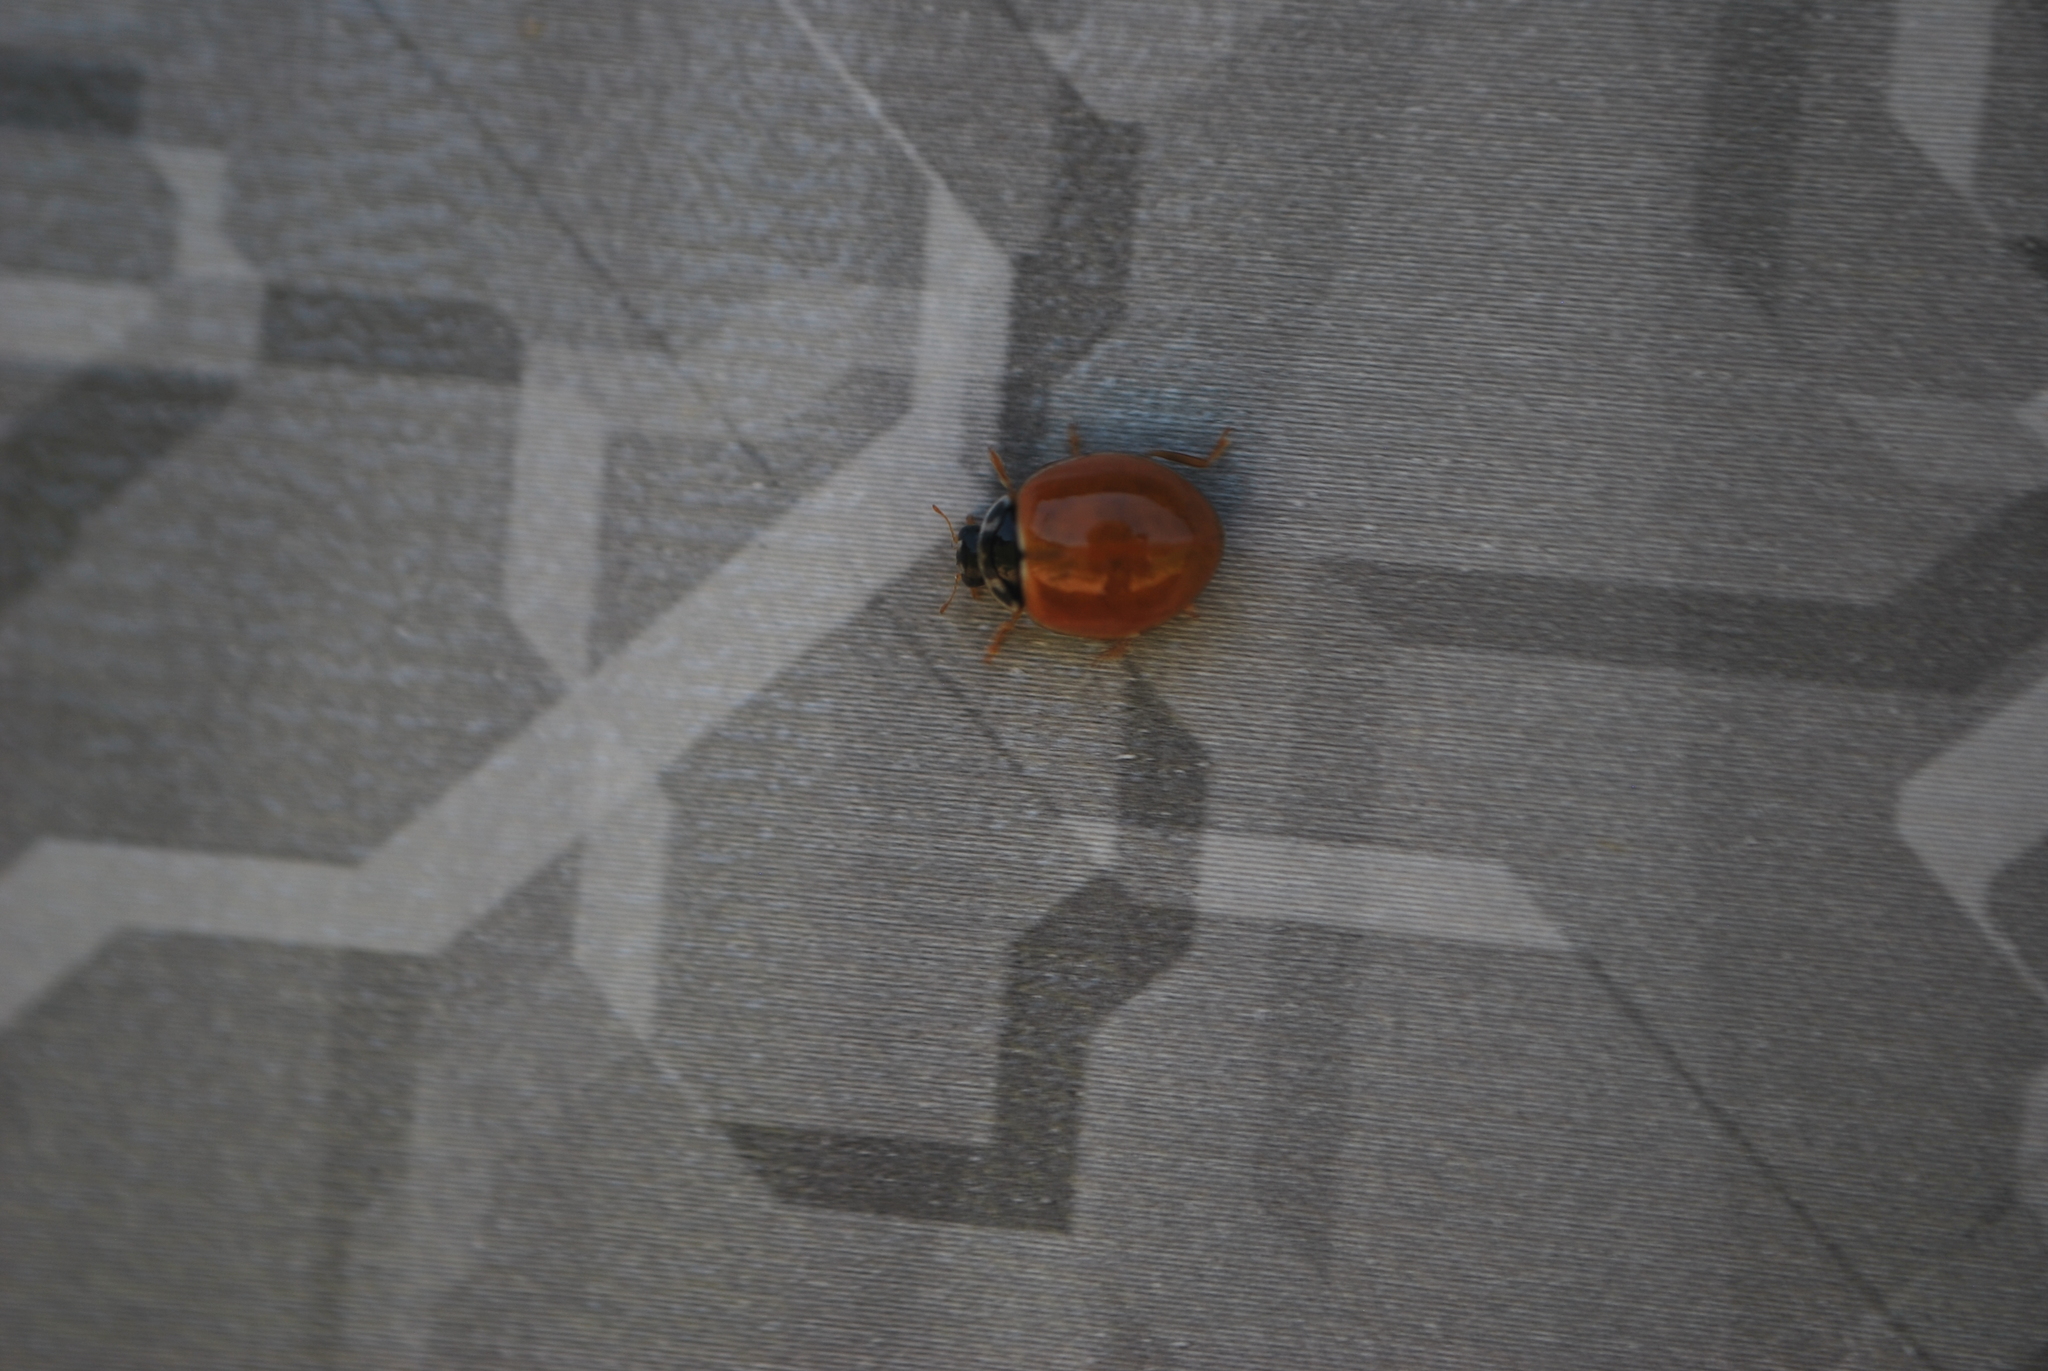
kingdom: Animalia
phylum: Arthropoda
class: Insecta
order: Coleoptera
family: Coccinellidae
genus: Cycloneda
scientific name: Cycloneda munda
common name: Polished lady beetle
